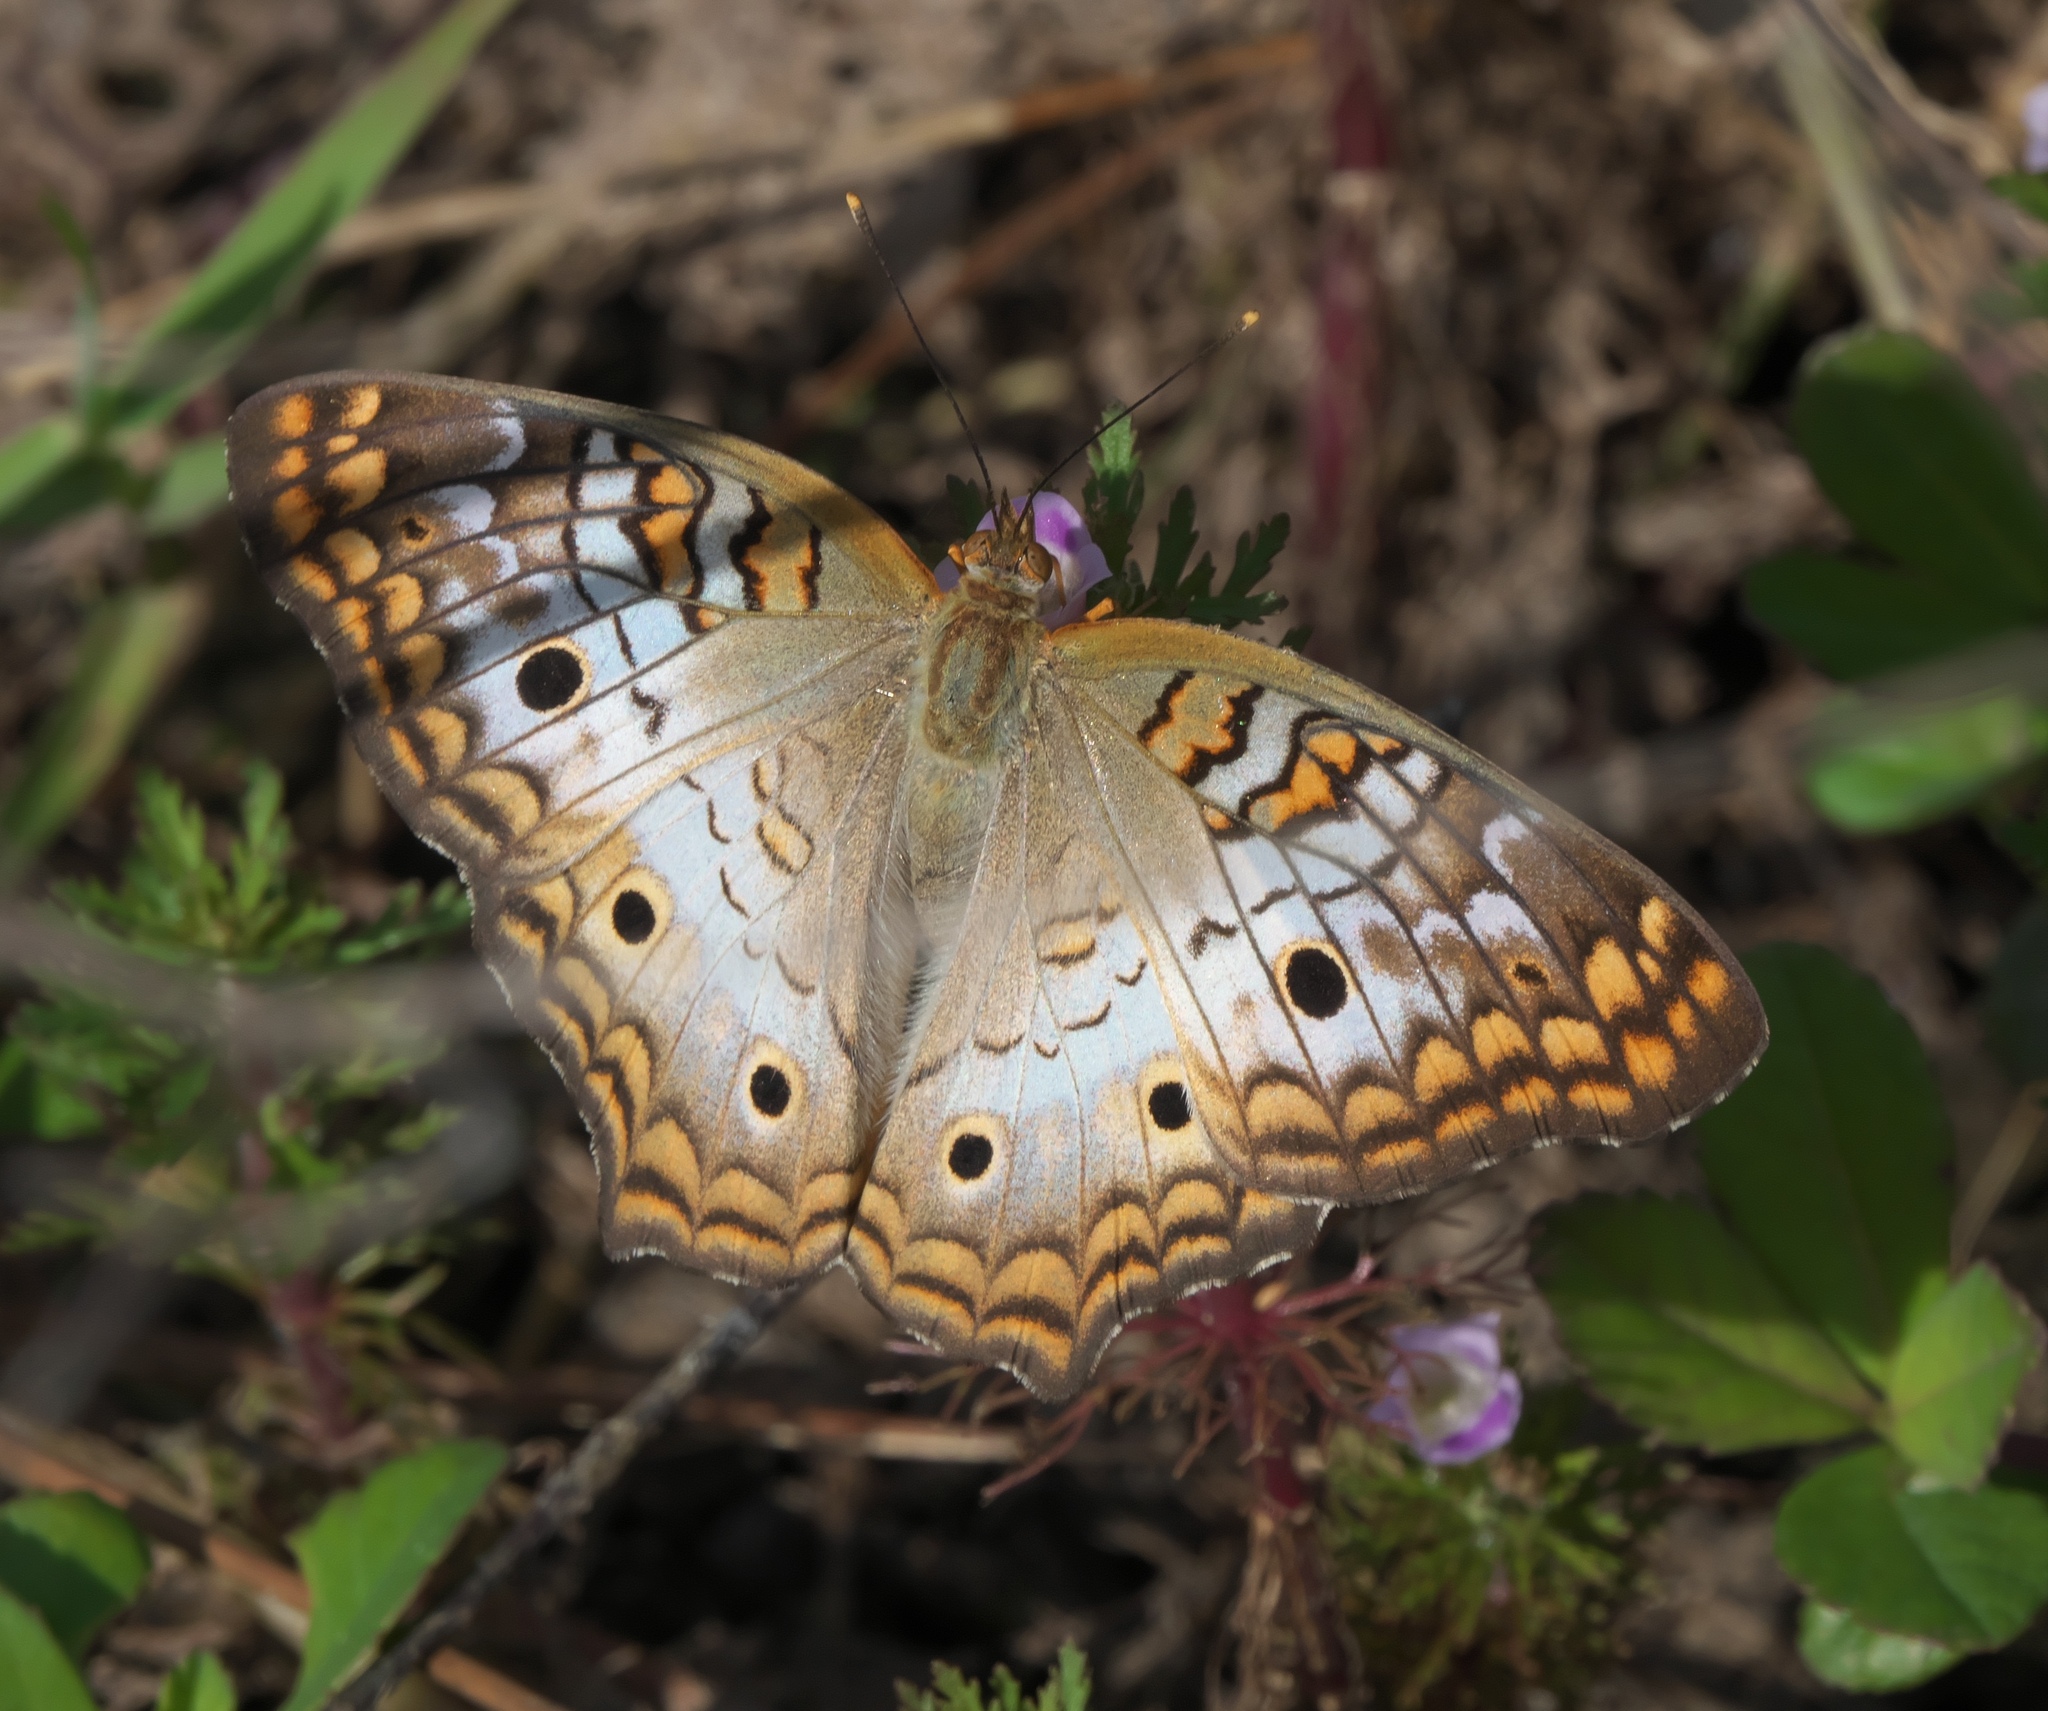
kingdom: Animalia
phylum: Arthropoda
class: Insecta
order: Lepidoptera
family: Nymphalidae
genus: Anartia
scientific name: Anartia jatrophae
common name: White peacock
